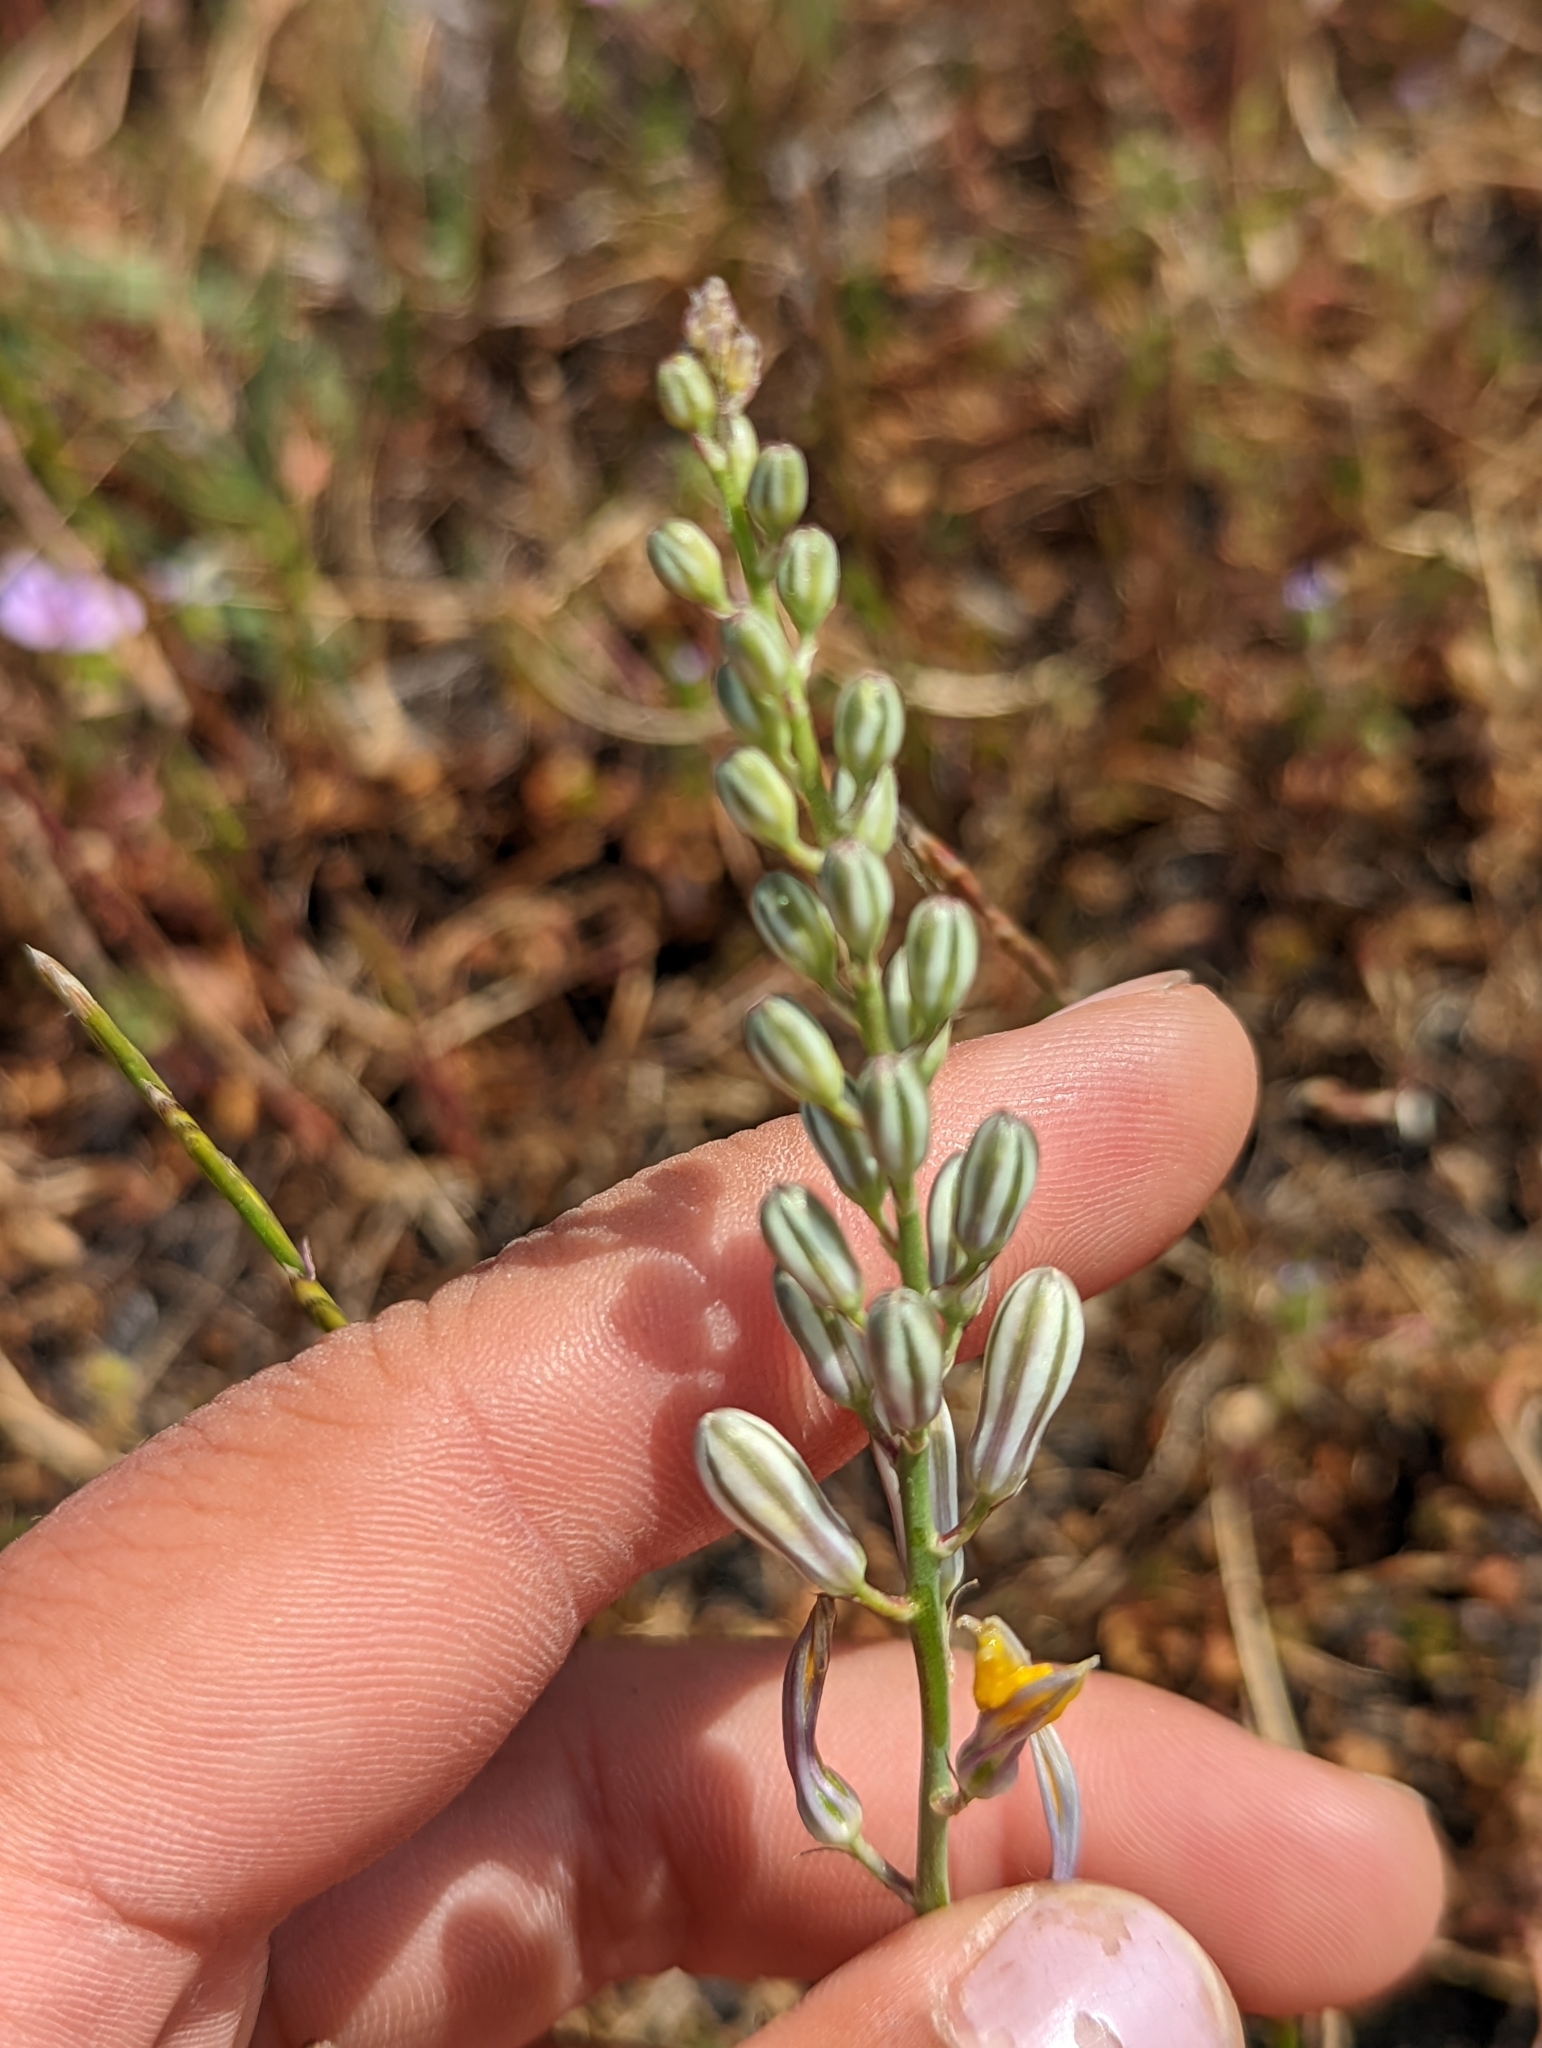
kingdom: Plantae
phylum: Tracheophyta
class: Liliopsida
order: Asparagales
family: Asparagaceae
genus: Chlorogalum
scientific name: Chlorogalum pomeridianum
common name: Amole
